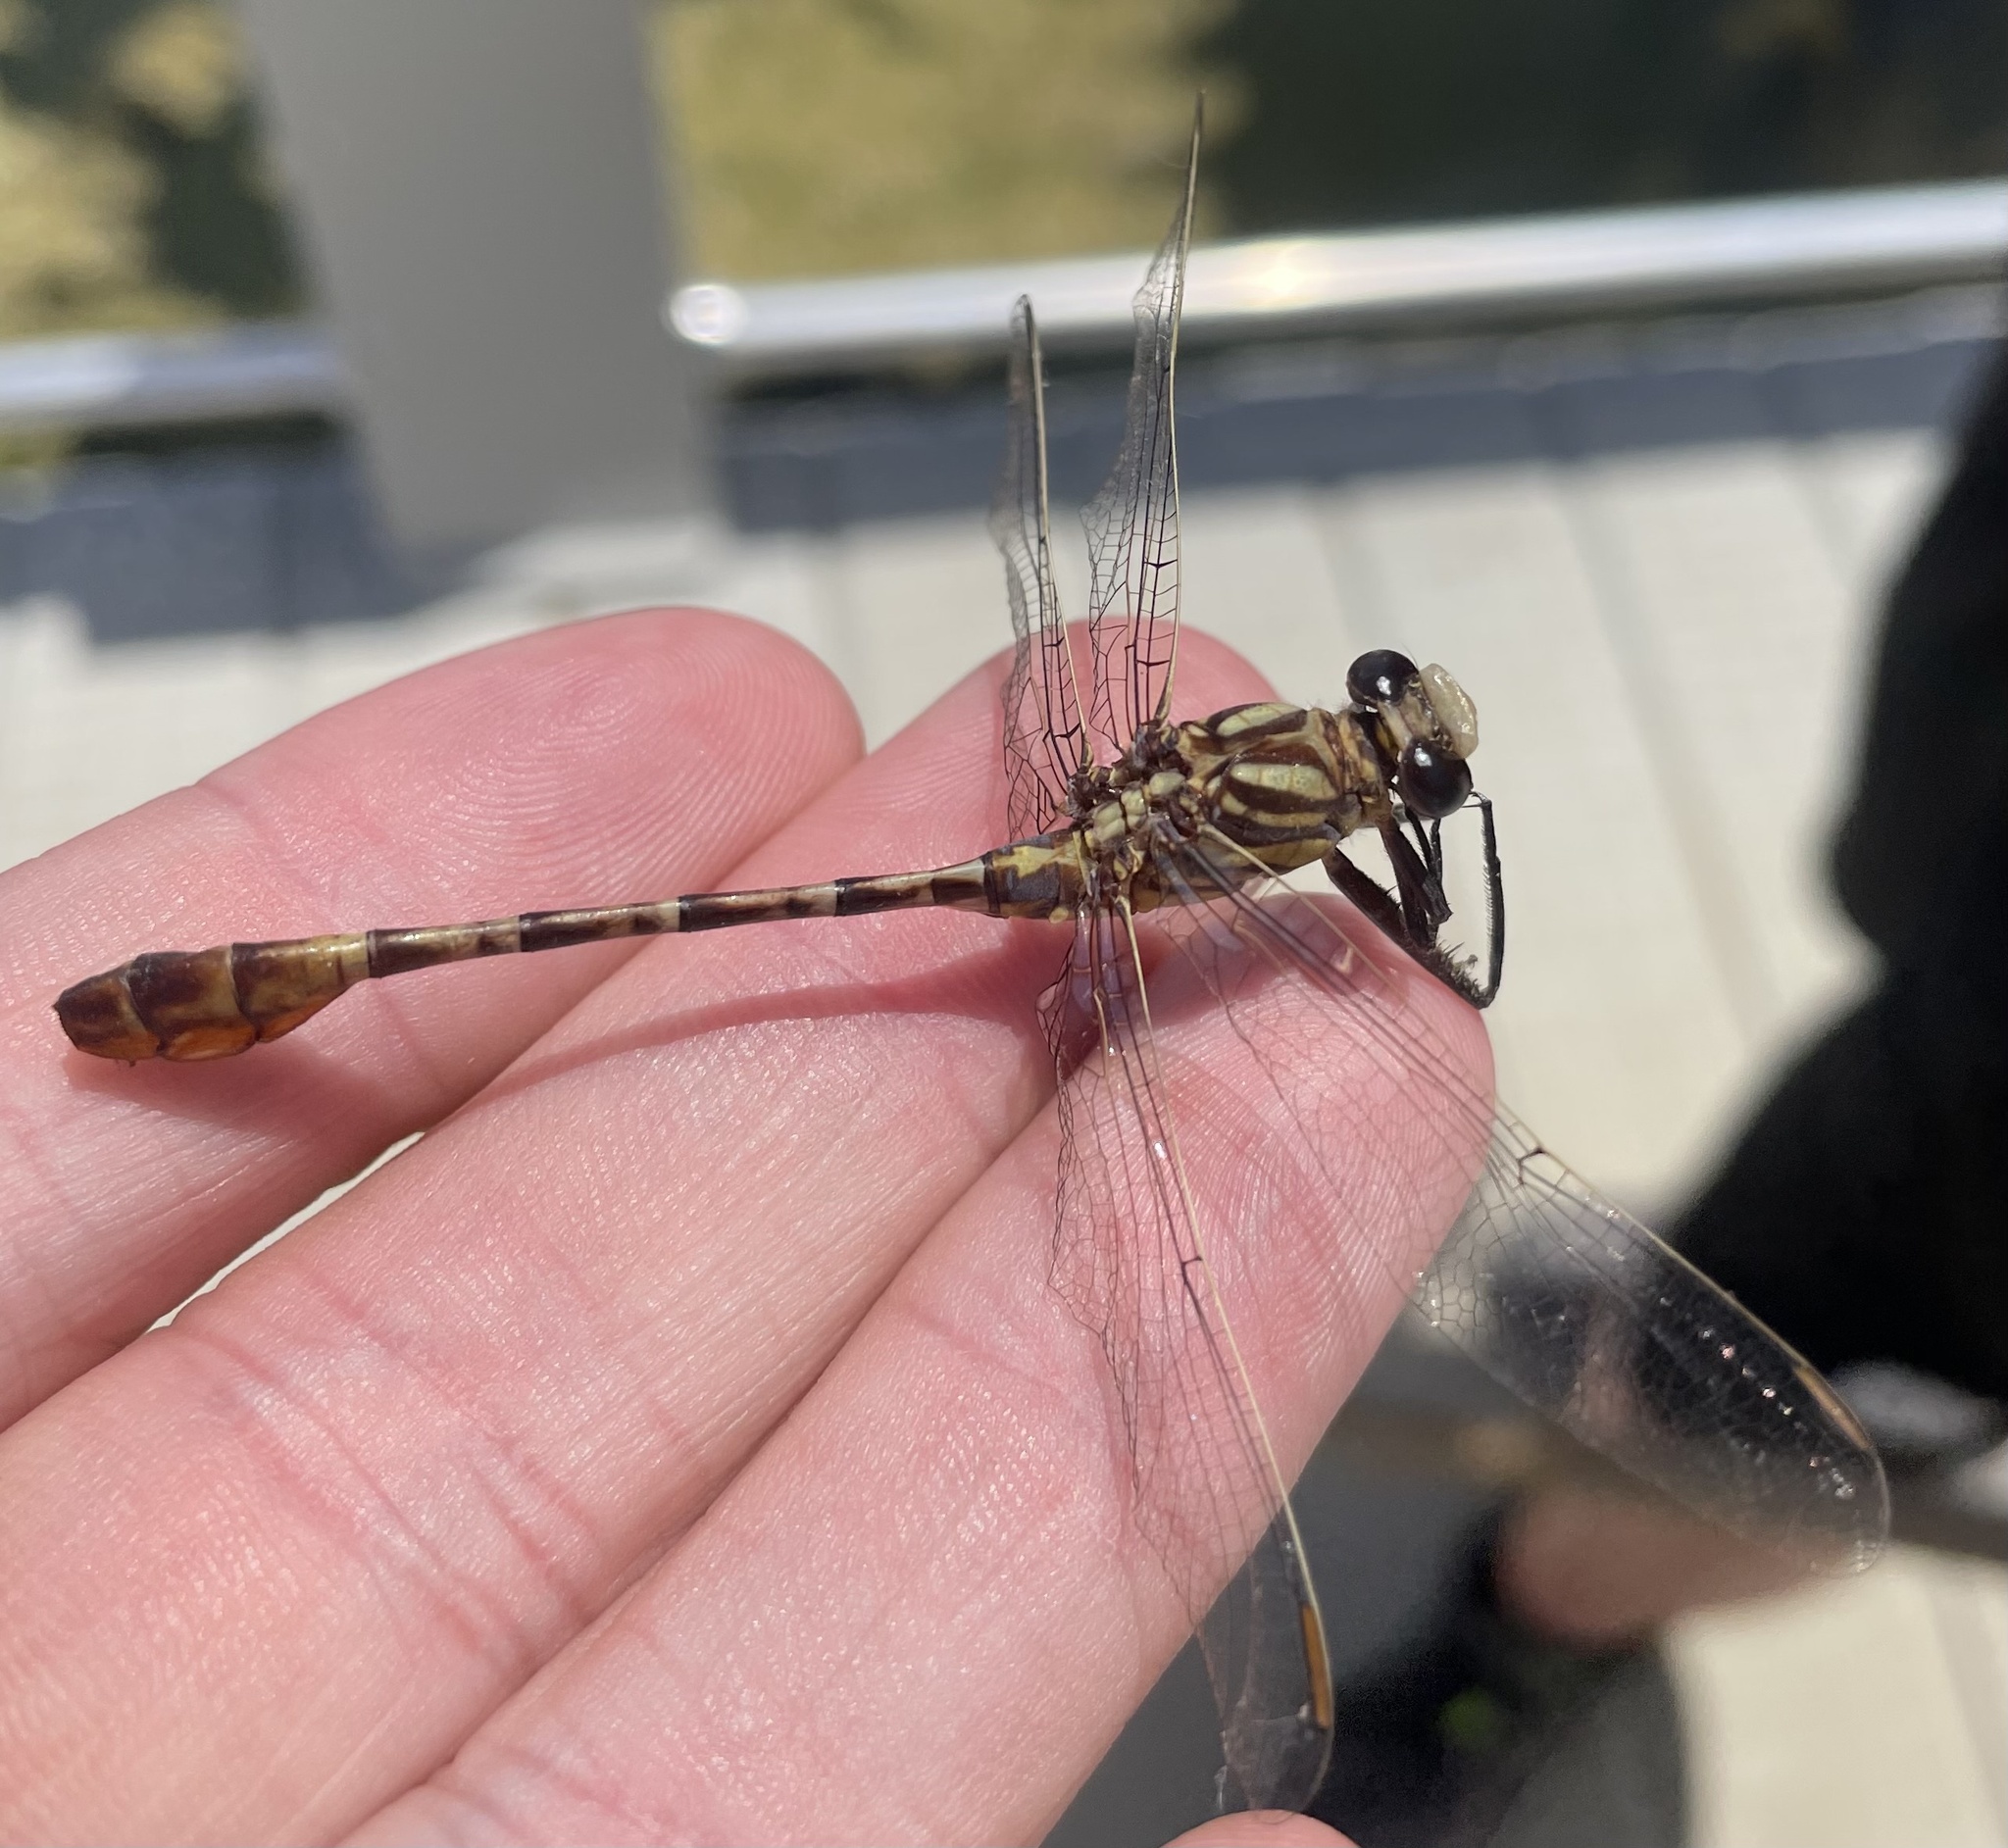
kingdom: Animalia
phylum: Arthropoda
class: Insecta
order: Odonata
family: Gomphidae
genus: Dromogomphus
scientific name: Dromogomphus spoliatus
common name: Flag-tailed spinyleg
